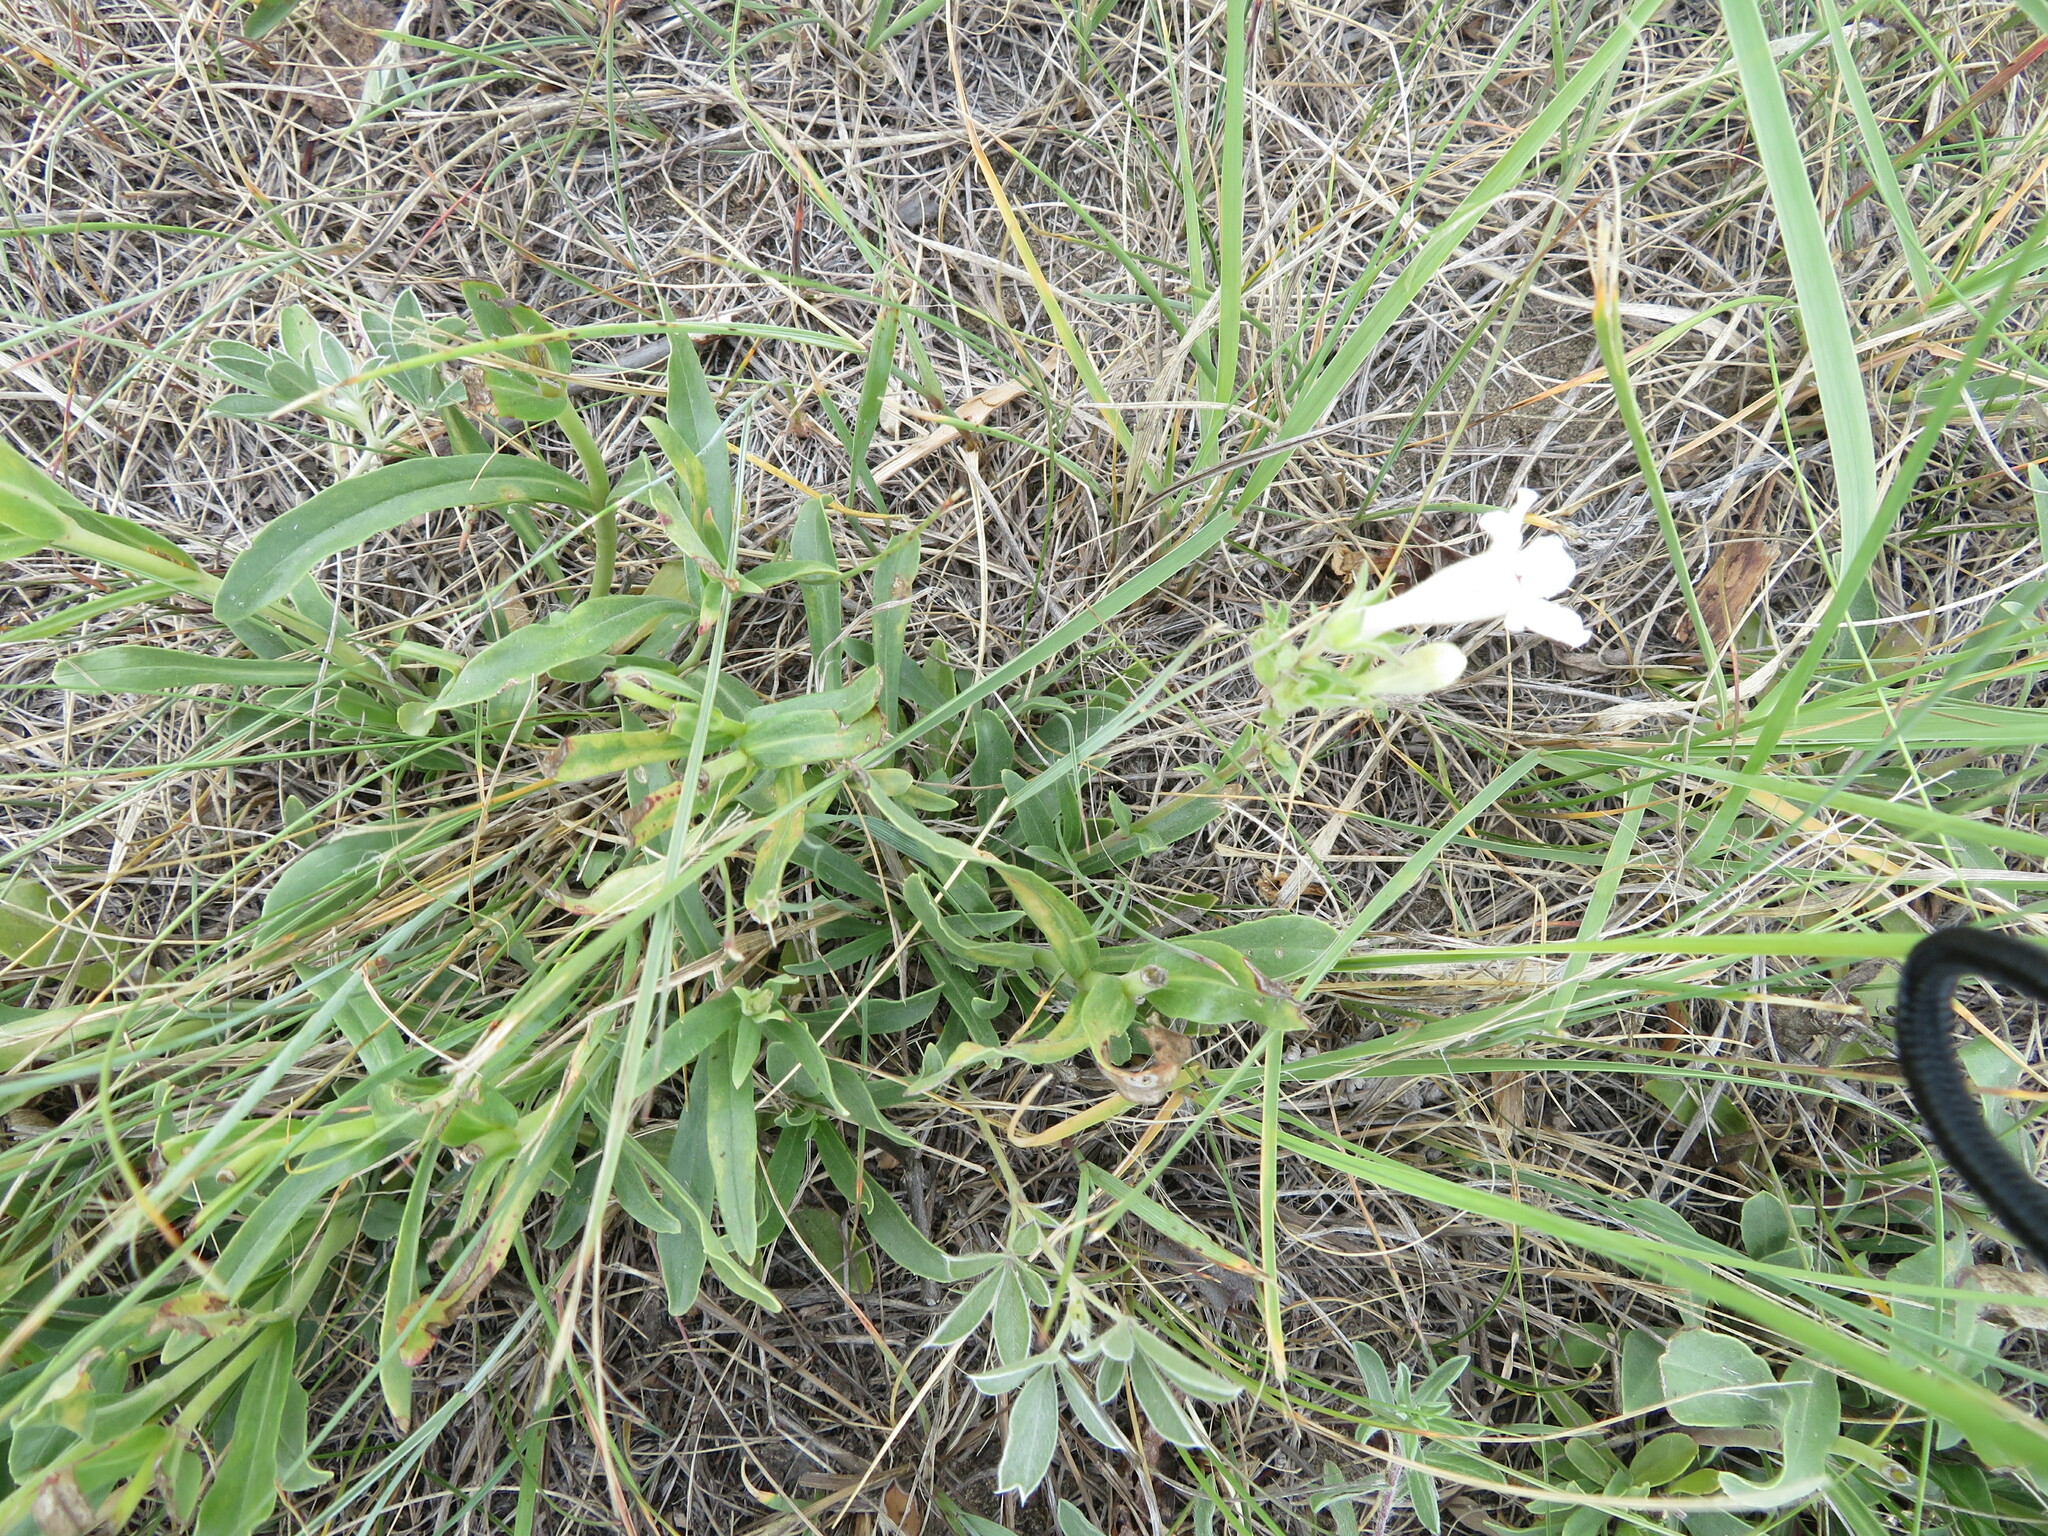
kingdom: Plantae
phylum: Tracheophyta
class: Magnoliopsida
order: Lamiales
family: Plantaginaceae
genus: Penstemon
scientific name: Penstemon albidus
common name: White beardtongue
